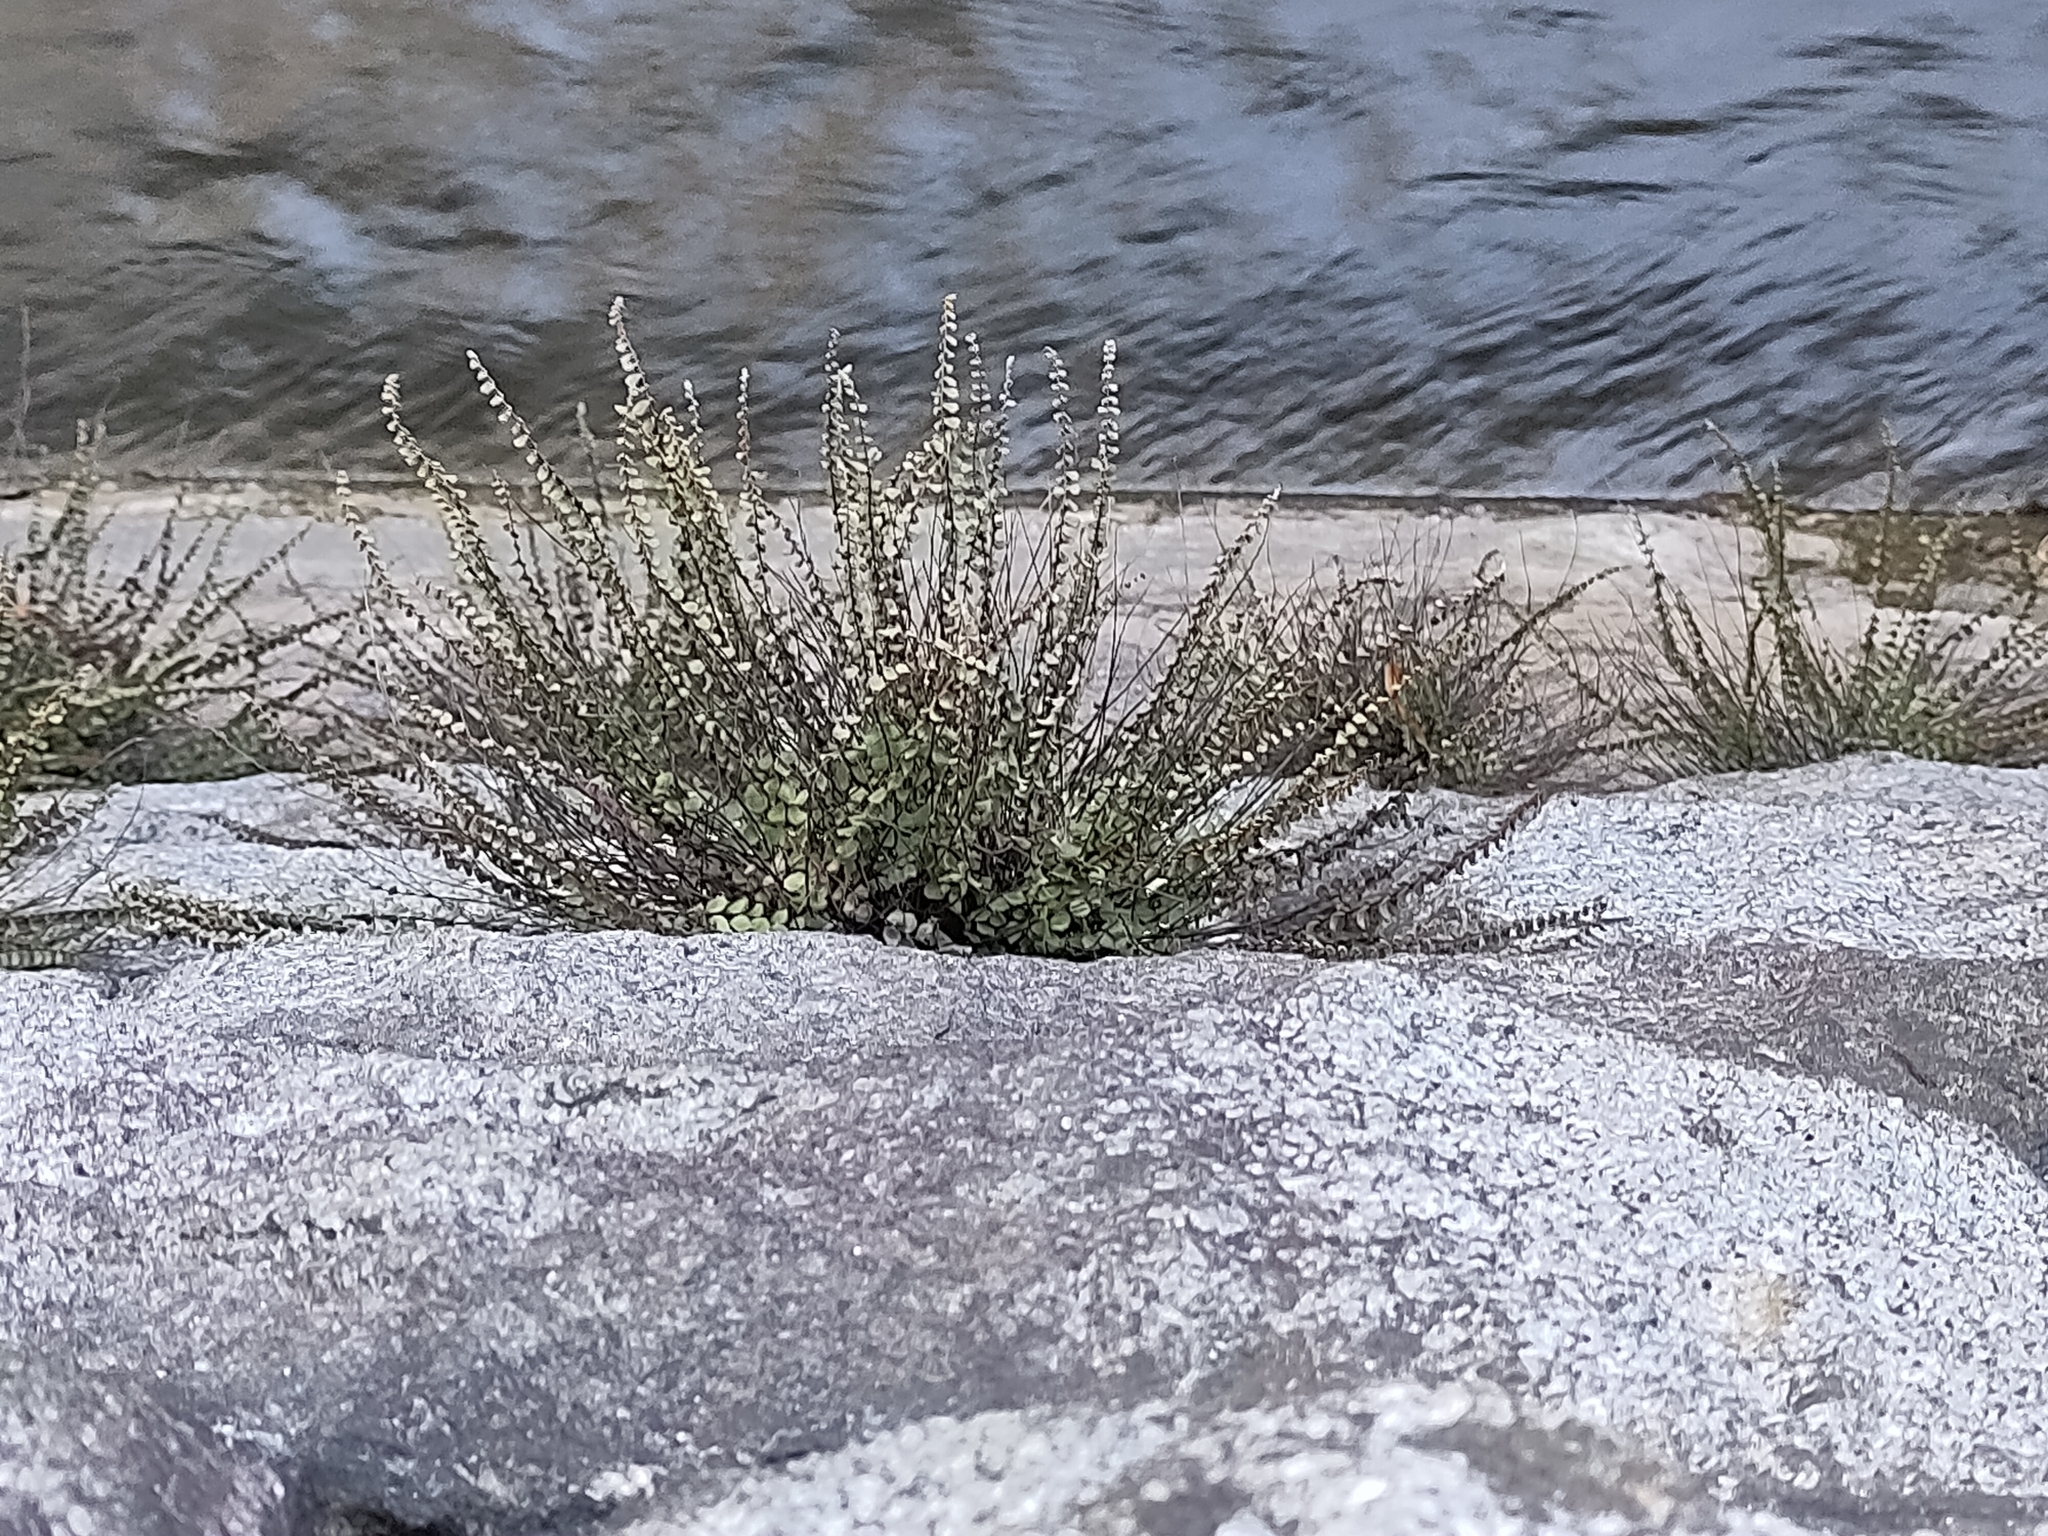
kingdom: Plantae
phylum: Tracheophyta
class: Polypodiopsida
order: Polypodiales
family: Aspleniaceae
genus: Asplenium
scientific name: Asplenium trichomanes
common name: Maidenhair spleenwort
